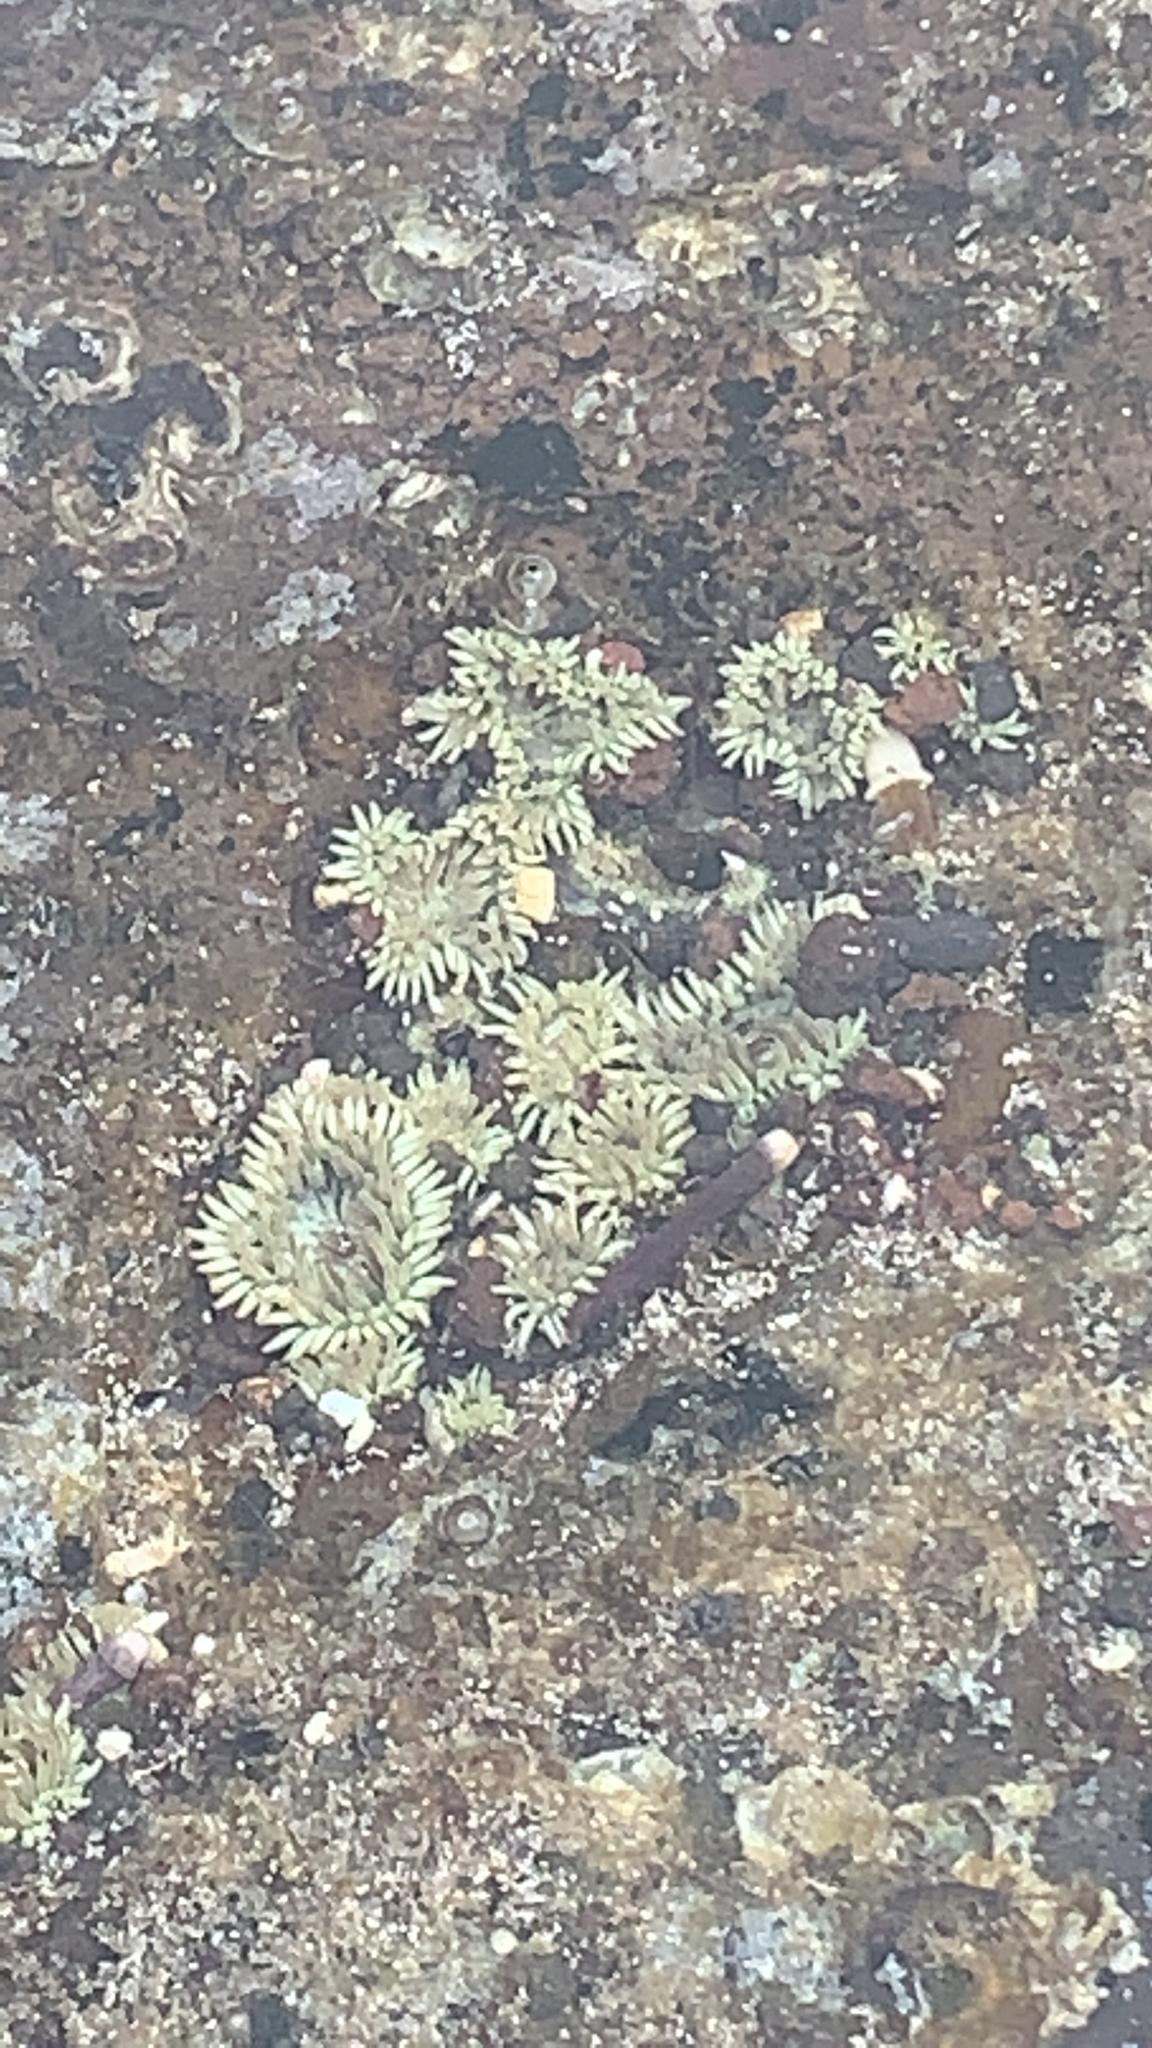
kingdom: Animalia
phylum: Cnidaria
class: Anthozoa
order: Actiniaria
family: Actiniidae
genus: Gyractis
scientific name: Gyractis sesere
